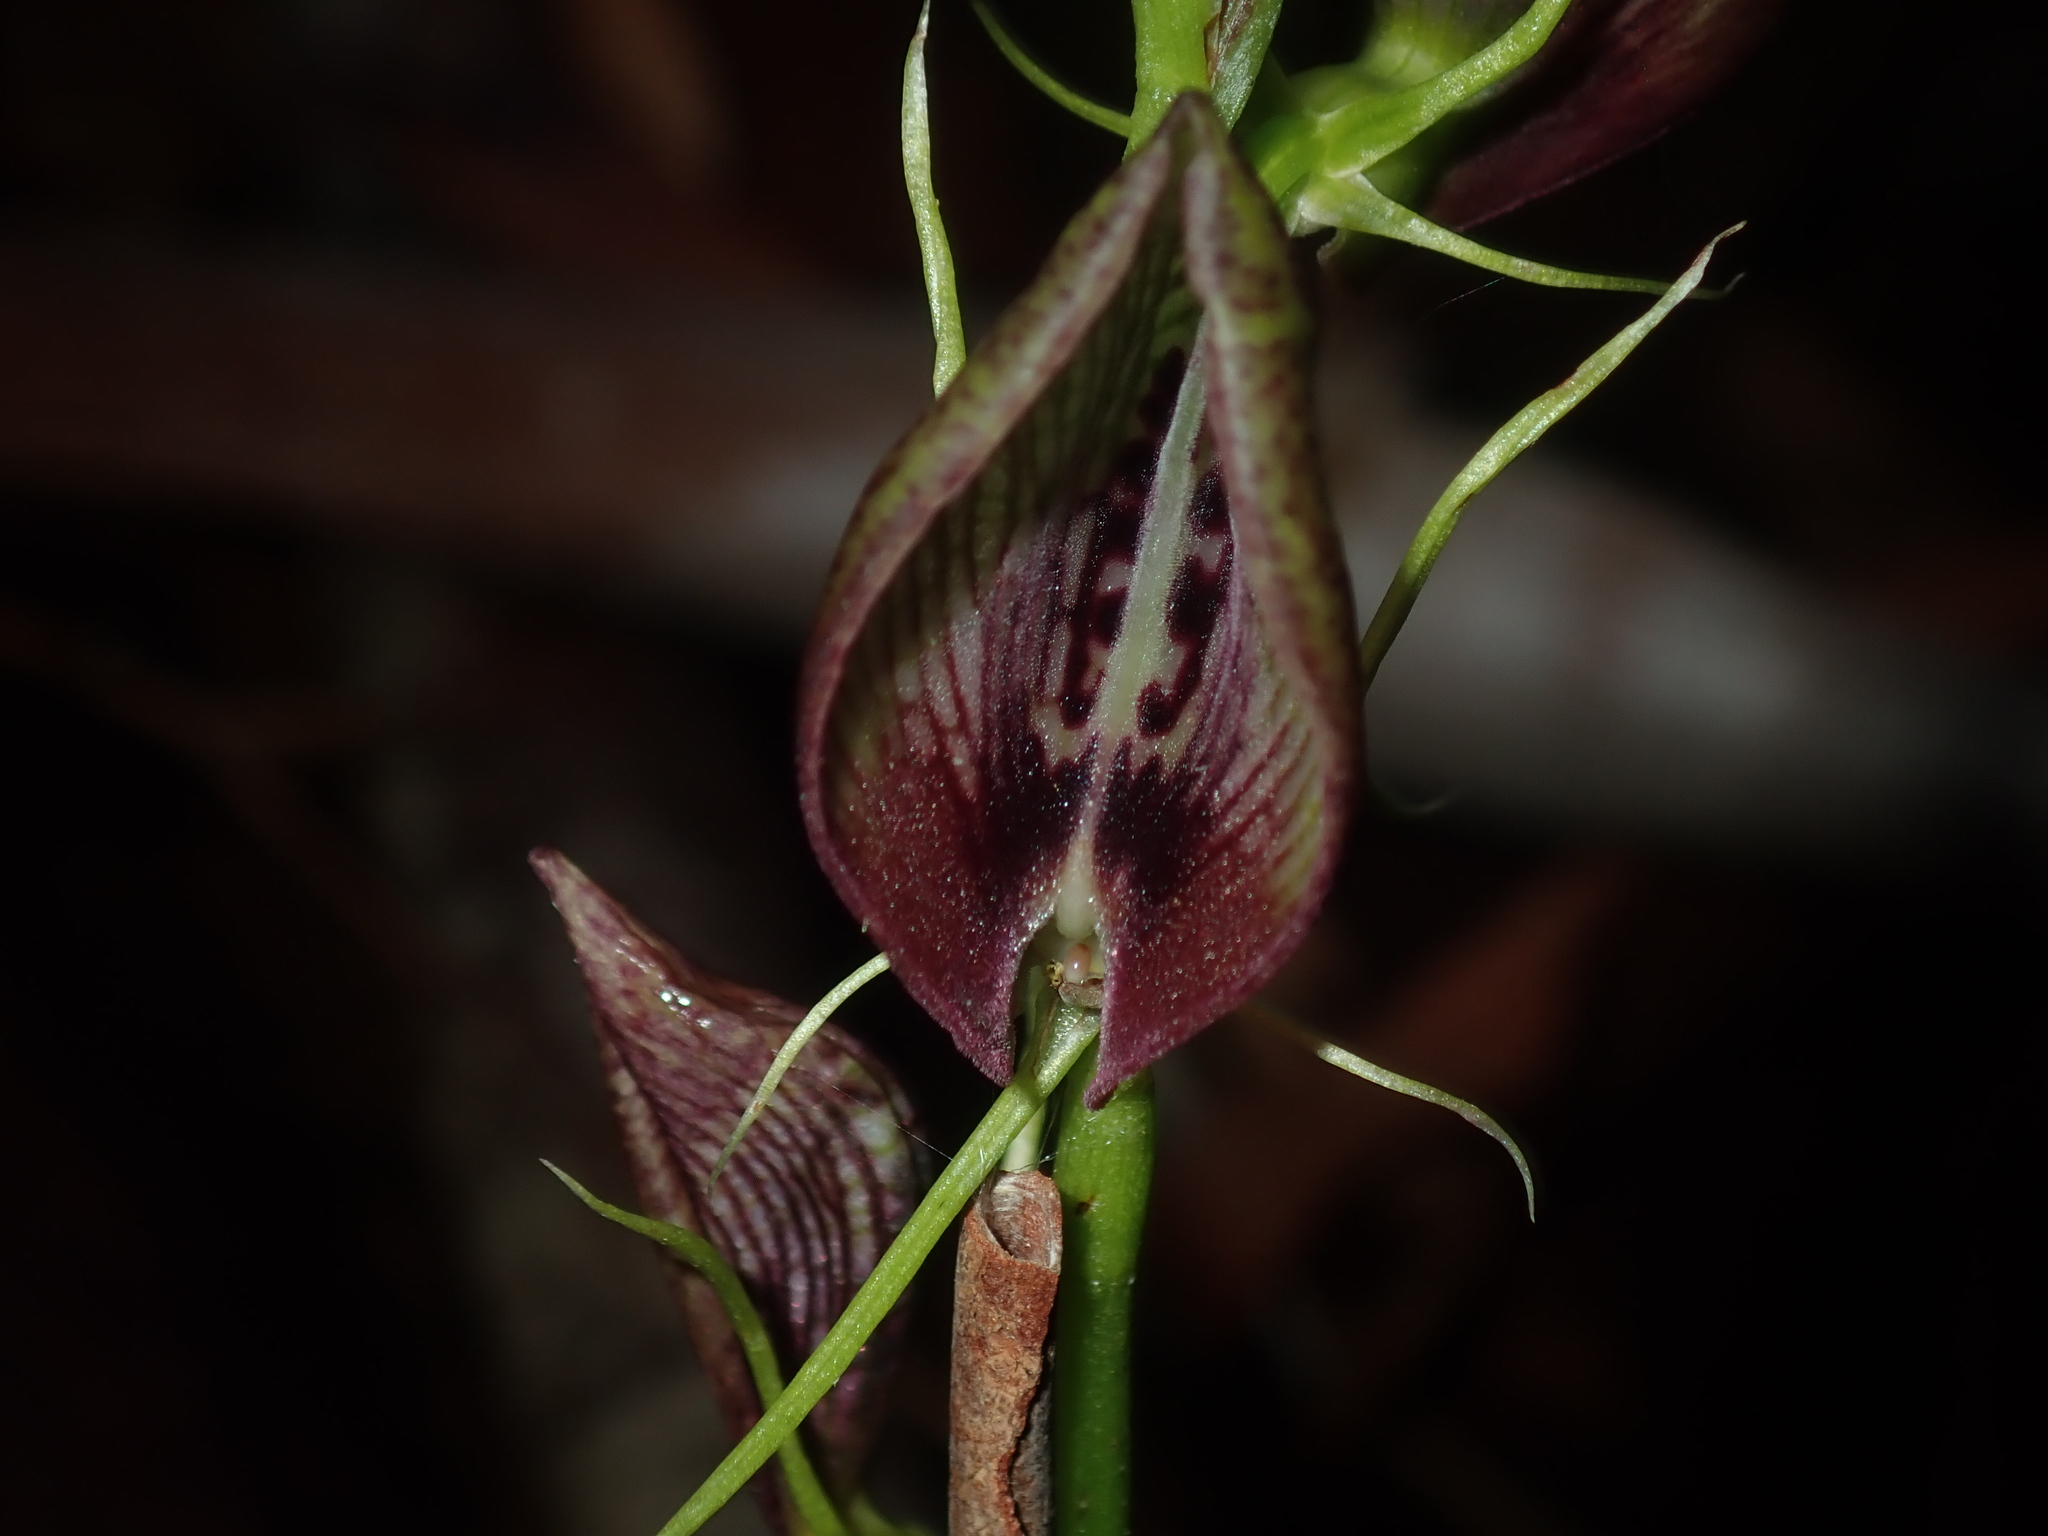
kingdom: Plantae
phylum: Tracheophyta
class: Liliopsida
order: Asparagales
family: Orchidaceae
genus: Cryptostylis
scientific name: Cryptostylis erecta
